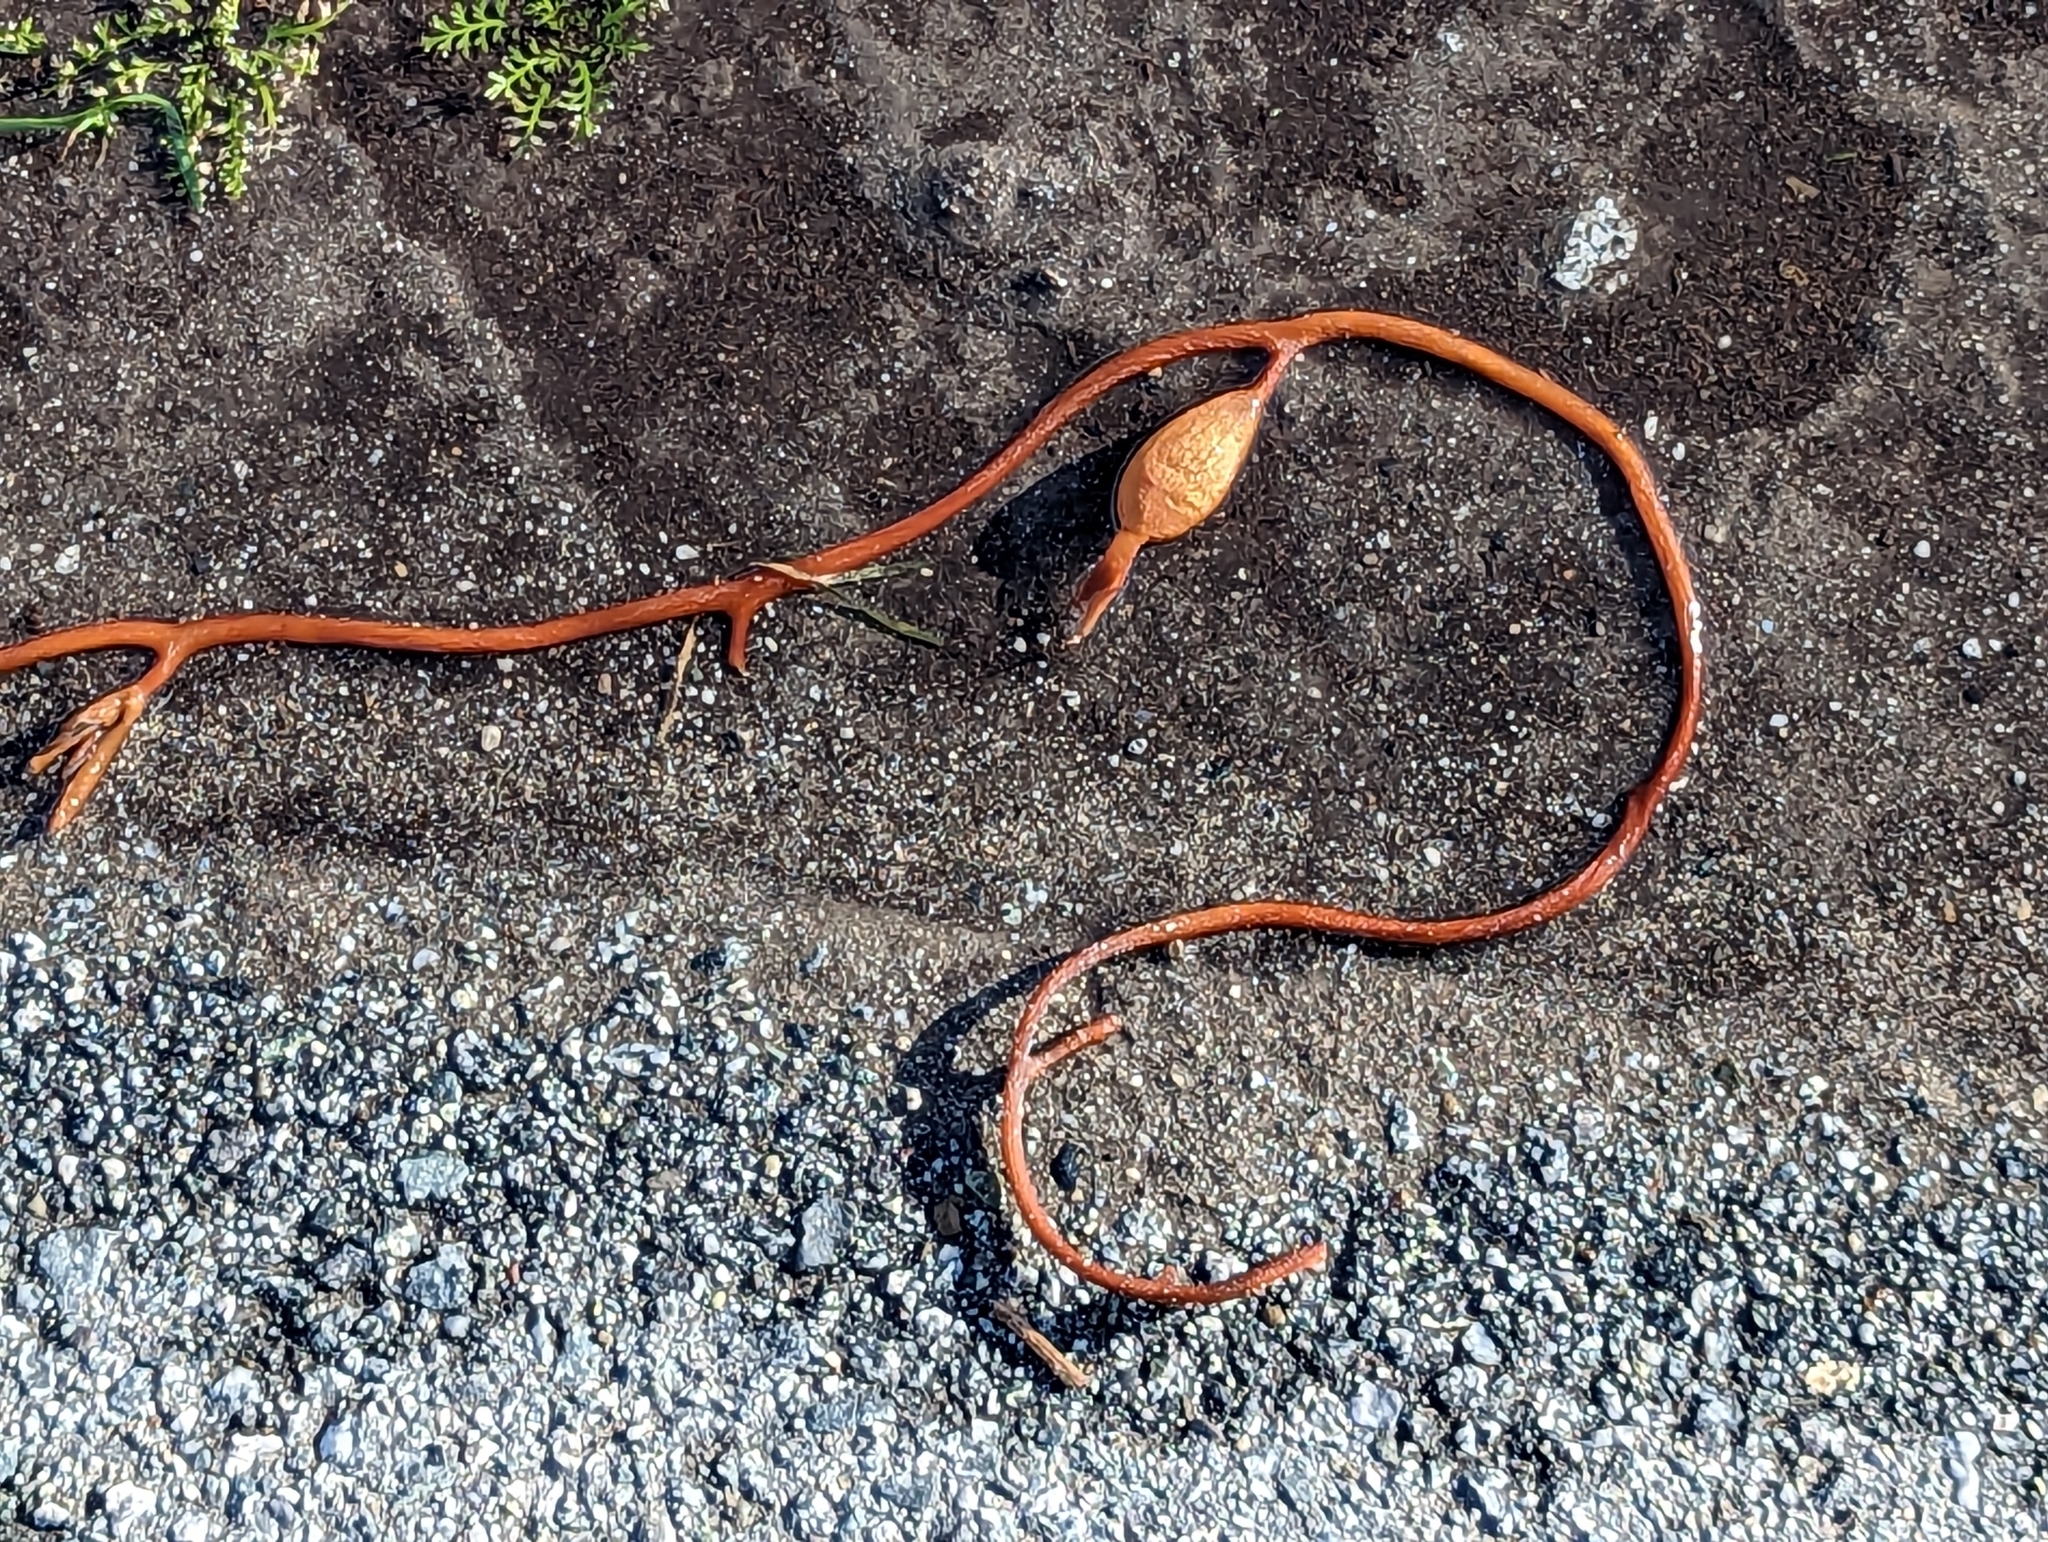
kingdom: Chromista
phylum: Ochrophyta
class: Phaeophyceae
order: Laminariales
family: Laminariaceae
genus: Macrocystis
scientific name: Macrocystis pyrifera
